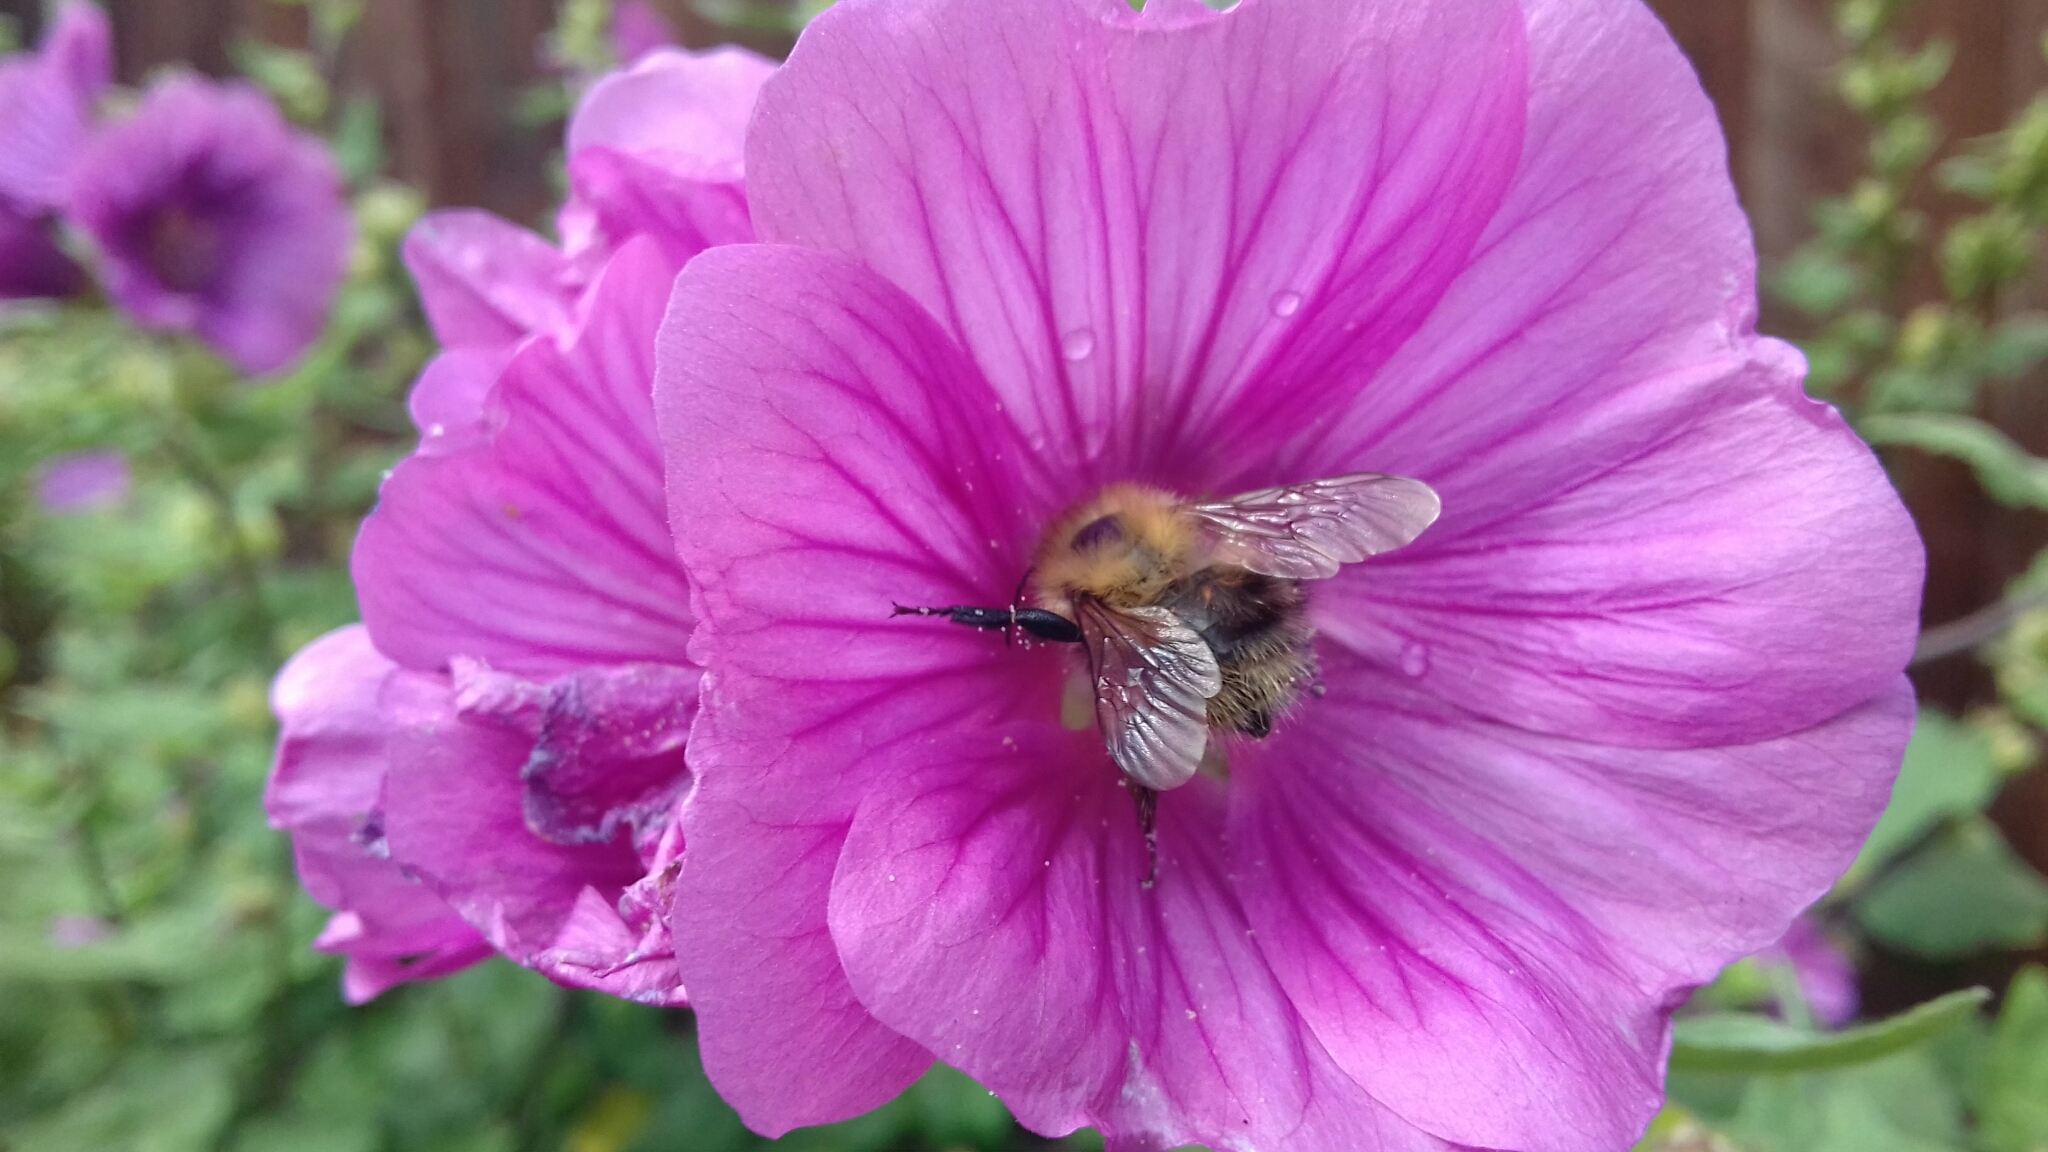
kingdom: Animalia
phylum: Arthropoda
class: Insecta
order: Hymenoptera
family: Apidae
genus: Bombus
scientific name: Bombus pascuorum
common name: Common carder bee
